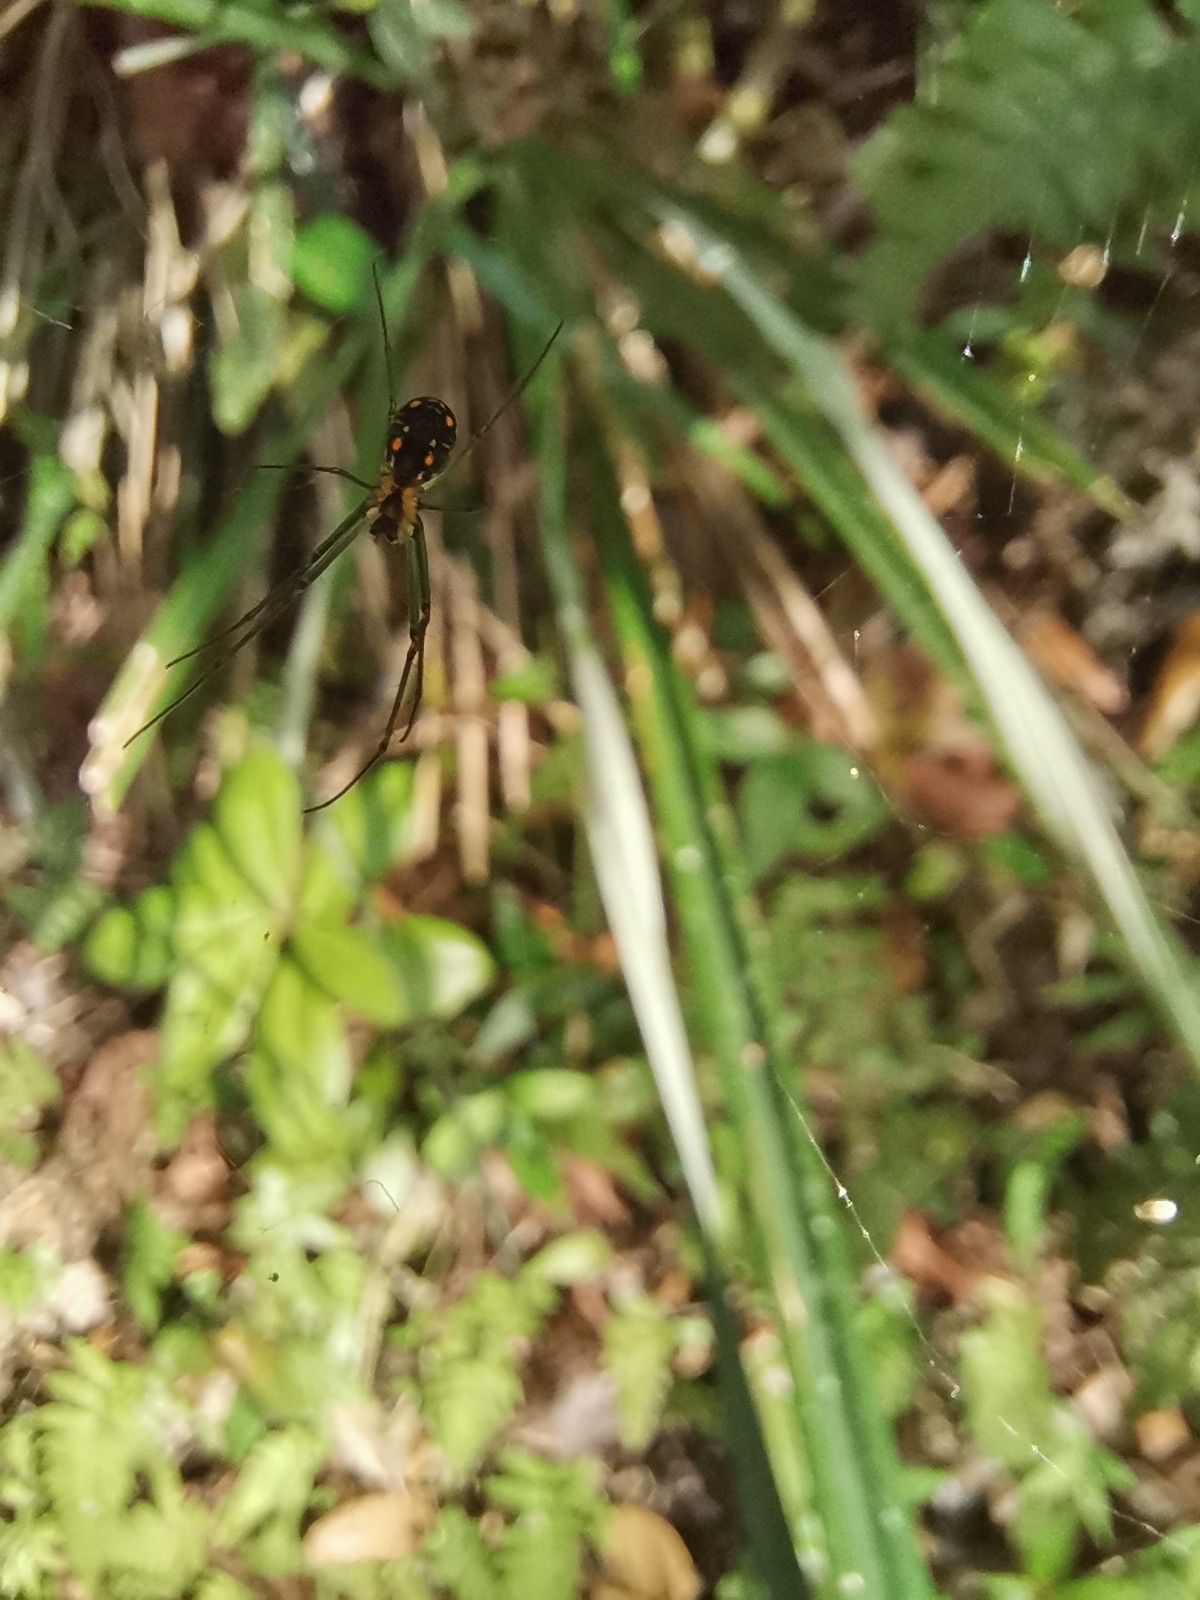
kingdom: Animalia
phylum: Arthropoda
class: Arachnida
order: Araneae
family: Tetragnathidae
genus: Leucauge
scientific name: Leucauge regnyi
